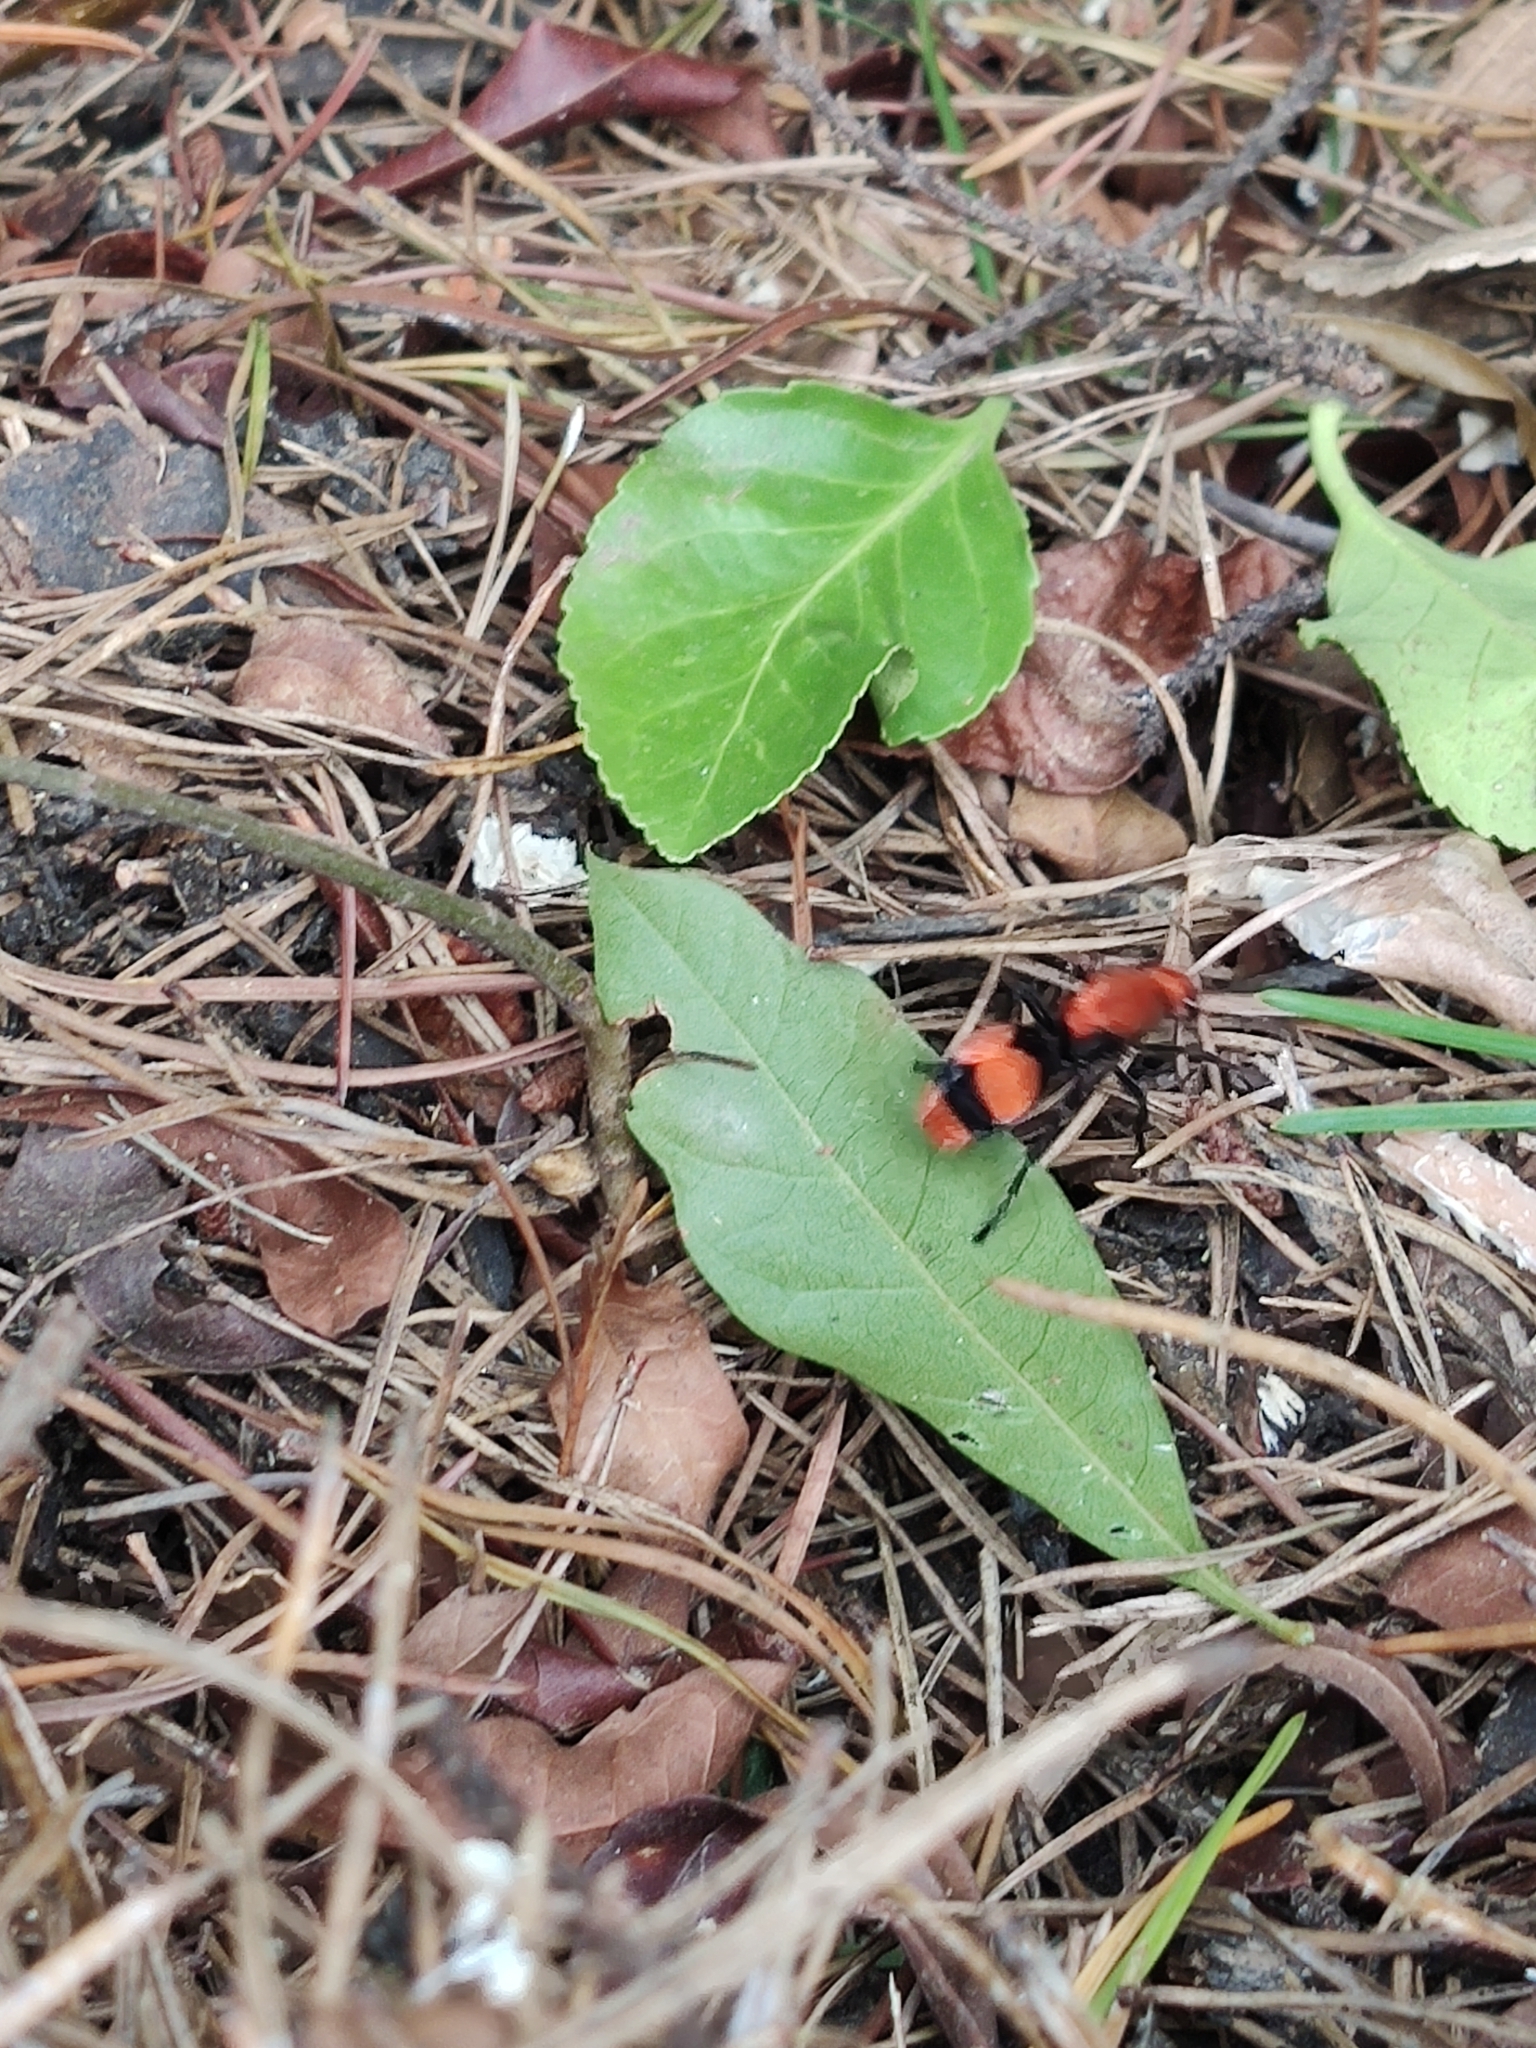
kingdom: Animalia
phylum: Arthropoda
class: Insecta
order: Hymenoptera
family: Mutillidae
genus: Dasymutilla
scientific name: Dasymutilla occidentalis
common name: Common eastern velvet ant
